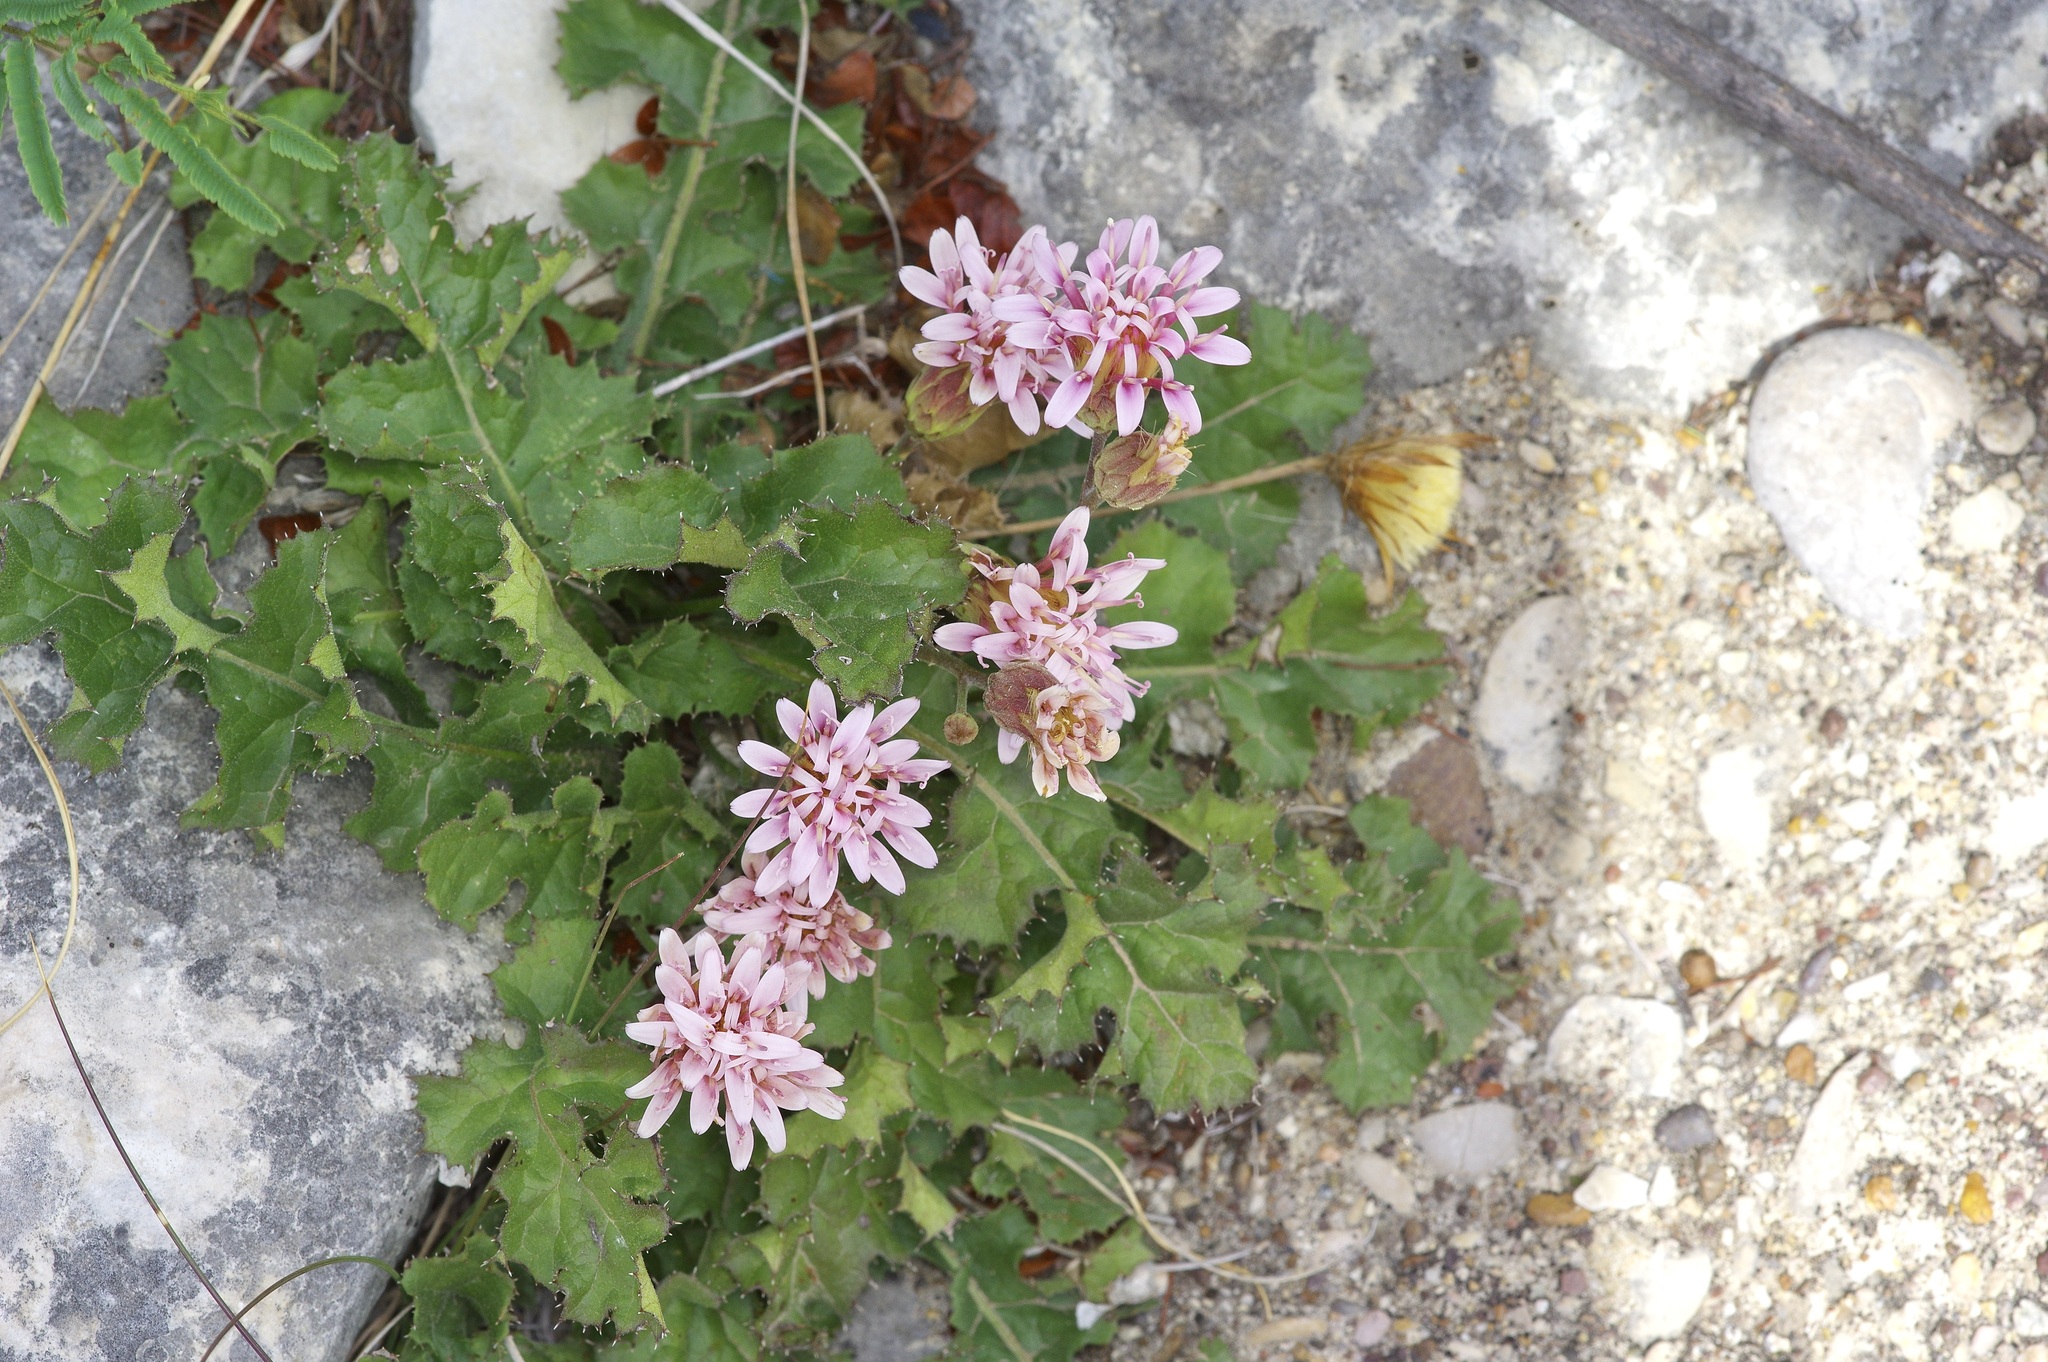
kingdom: Plantae
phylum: Tracheophyta
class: Magnoliopsida
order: Asterales
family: Asteraceae
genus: Acourtia
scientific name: Acourtia runcinata
